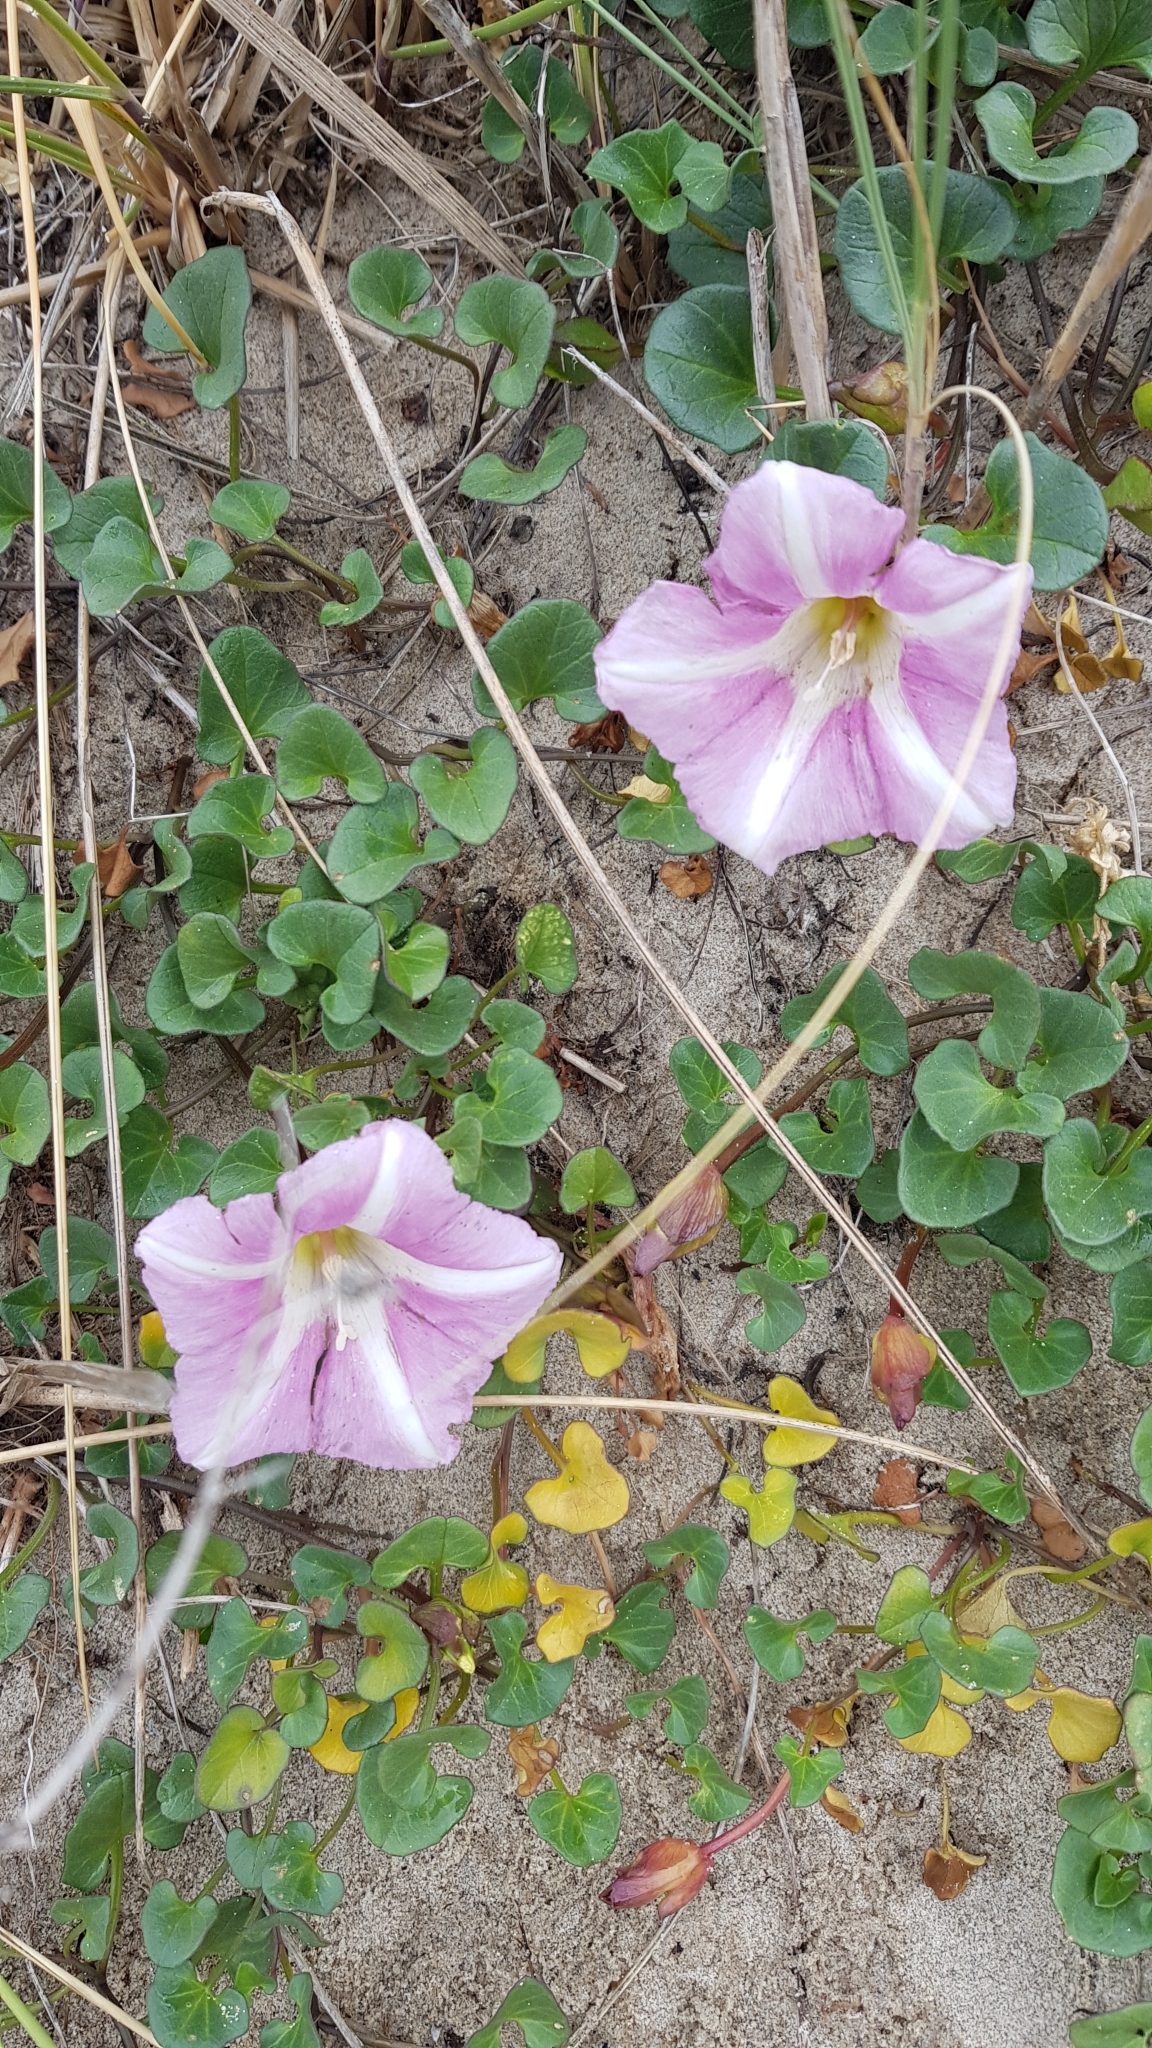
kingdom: Plantae
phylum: Tracheophyta
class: Magnoliopsida
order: Solanales
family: Convolvulaceae
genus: Calystegia
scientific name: Calystegia soldanella
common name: Sea bindweed
